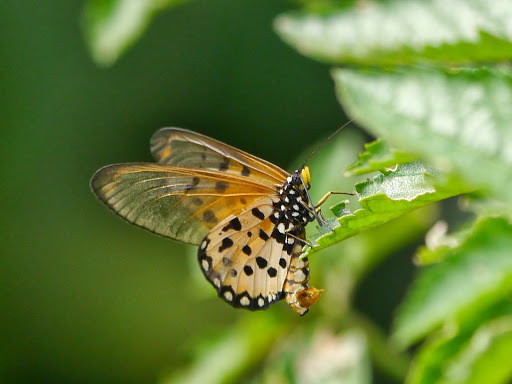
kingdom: Animalia
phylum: Arthropoda
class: Insecta
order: Lepidoptera
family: Nymphalidae
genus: Acraea
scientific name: Acraea neobule
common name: Dancing acraea
